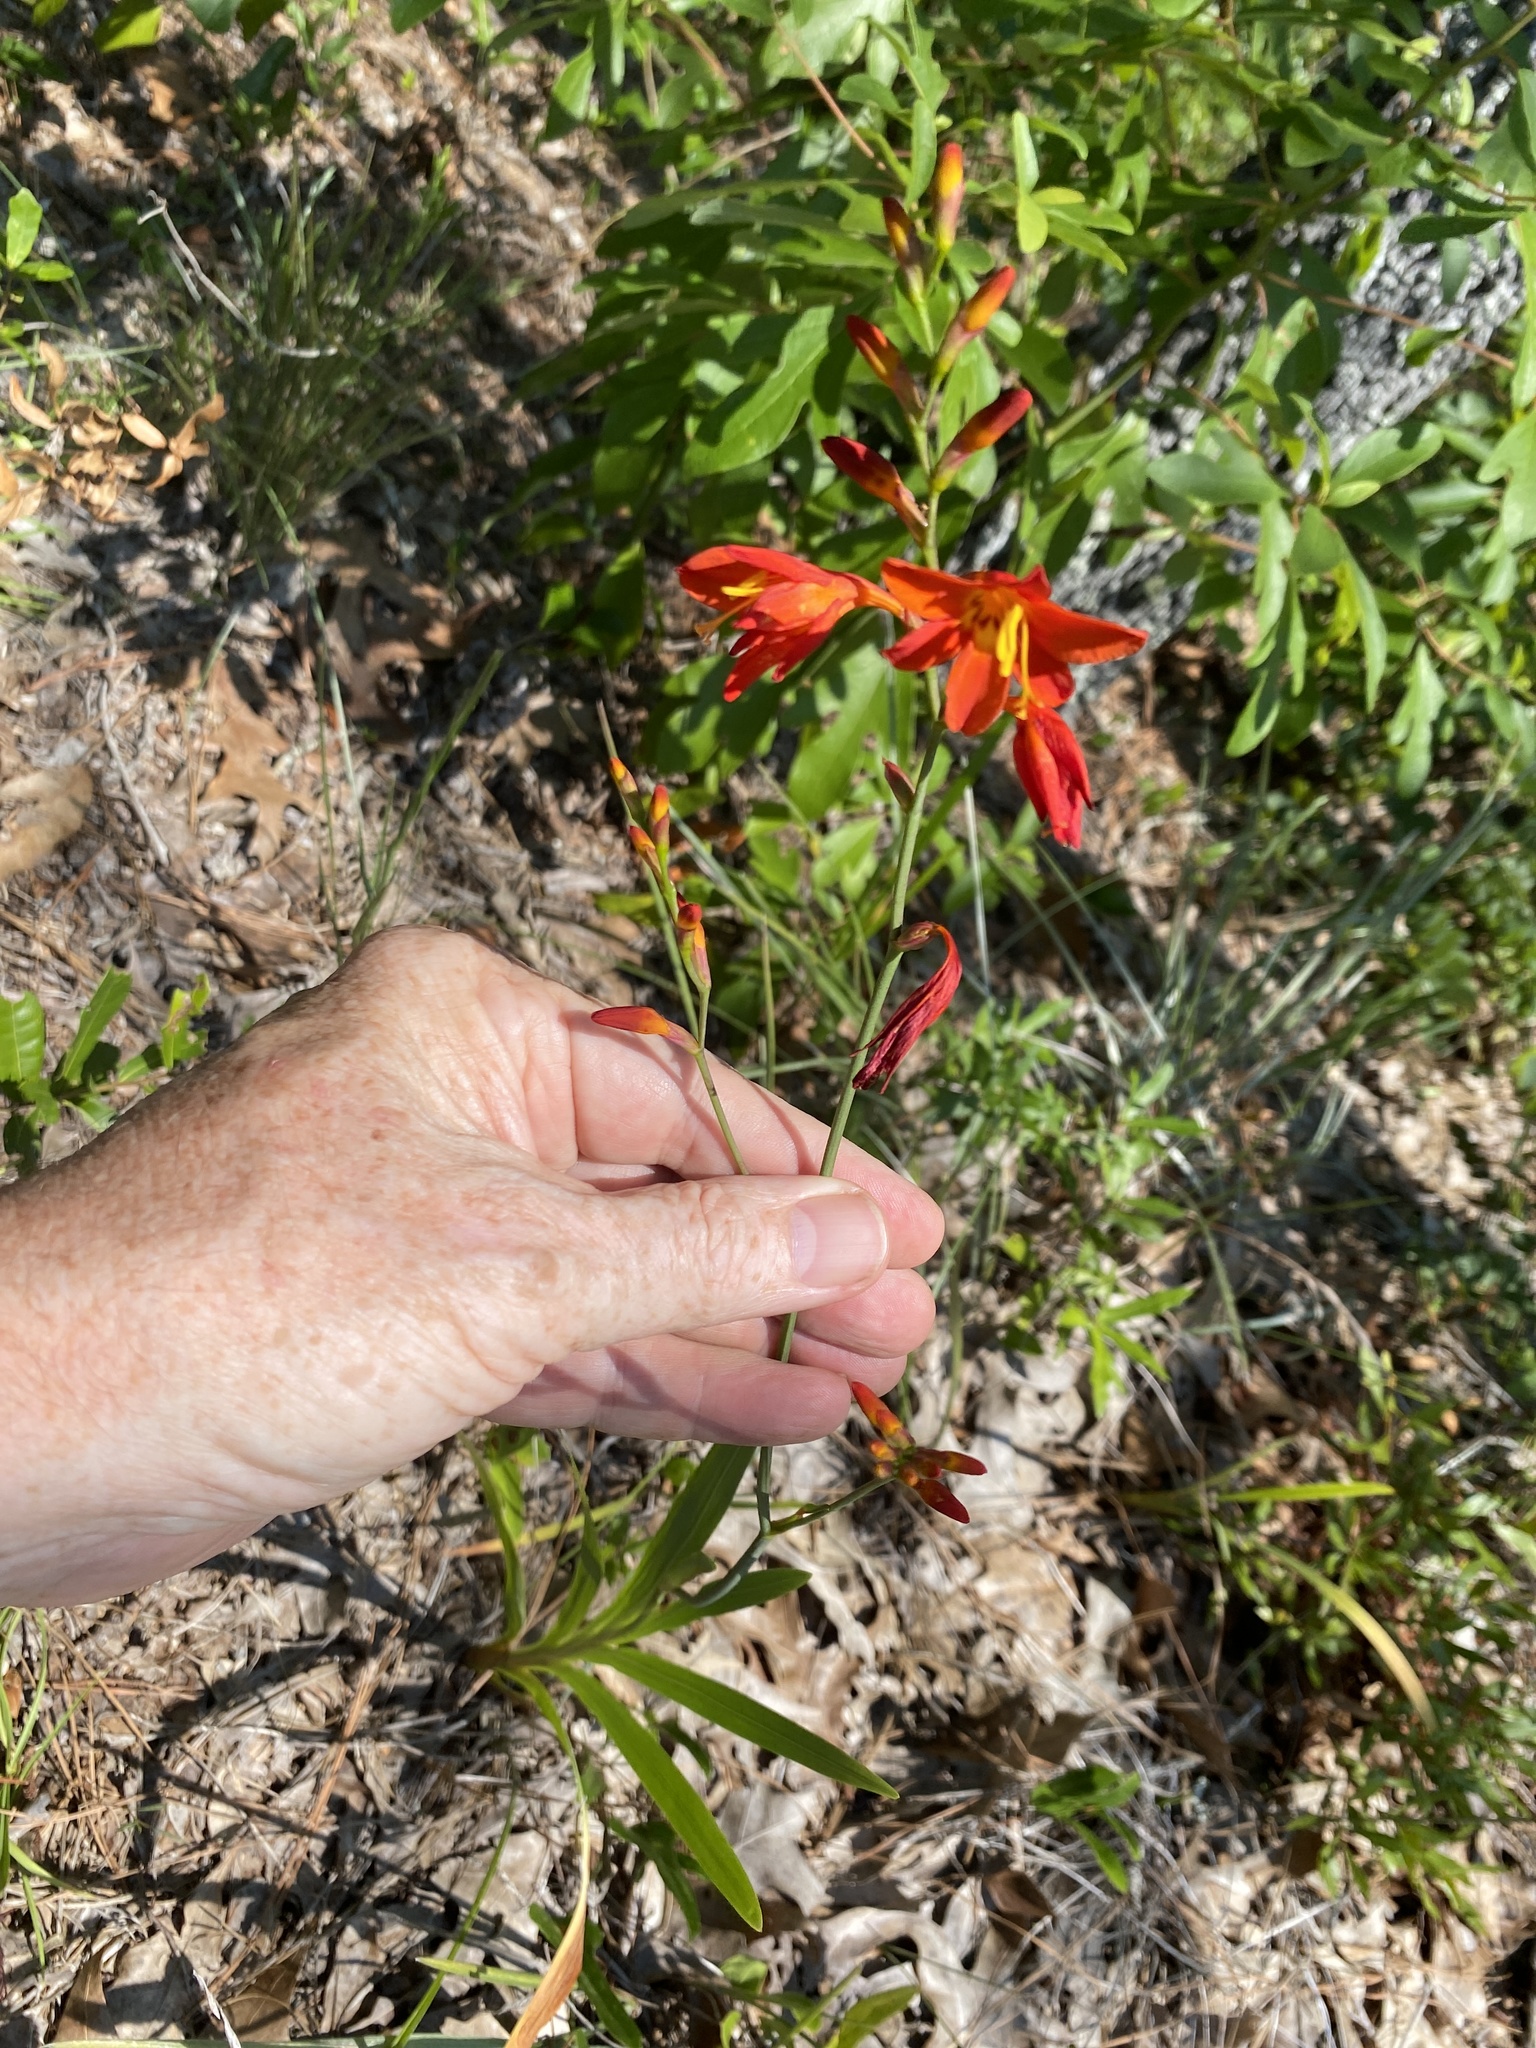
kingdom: Plantae
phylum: Tracheophyta
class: Liliopsida
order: Asparagales
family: Iridaceae
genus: Crocosmia
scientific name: Crocosmia crocosmiiflora
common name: Montbretia
